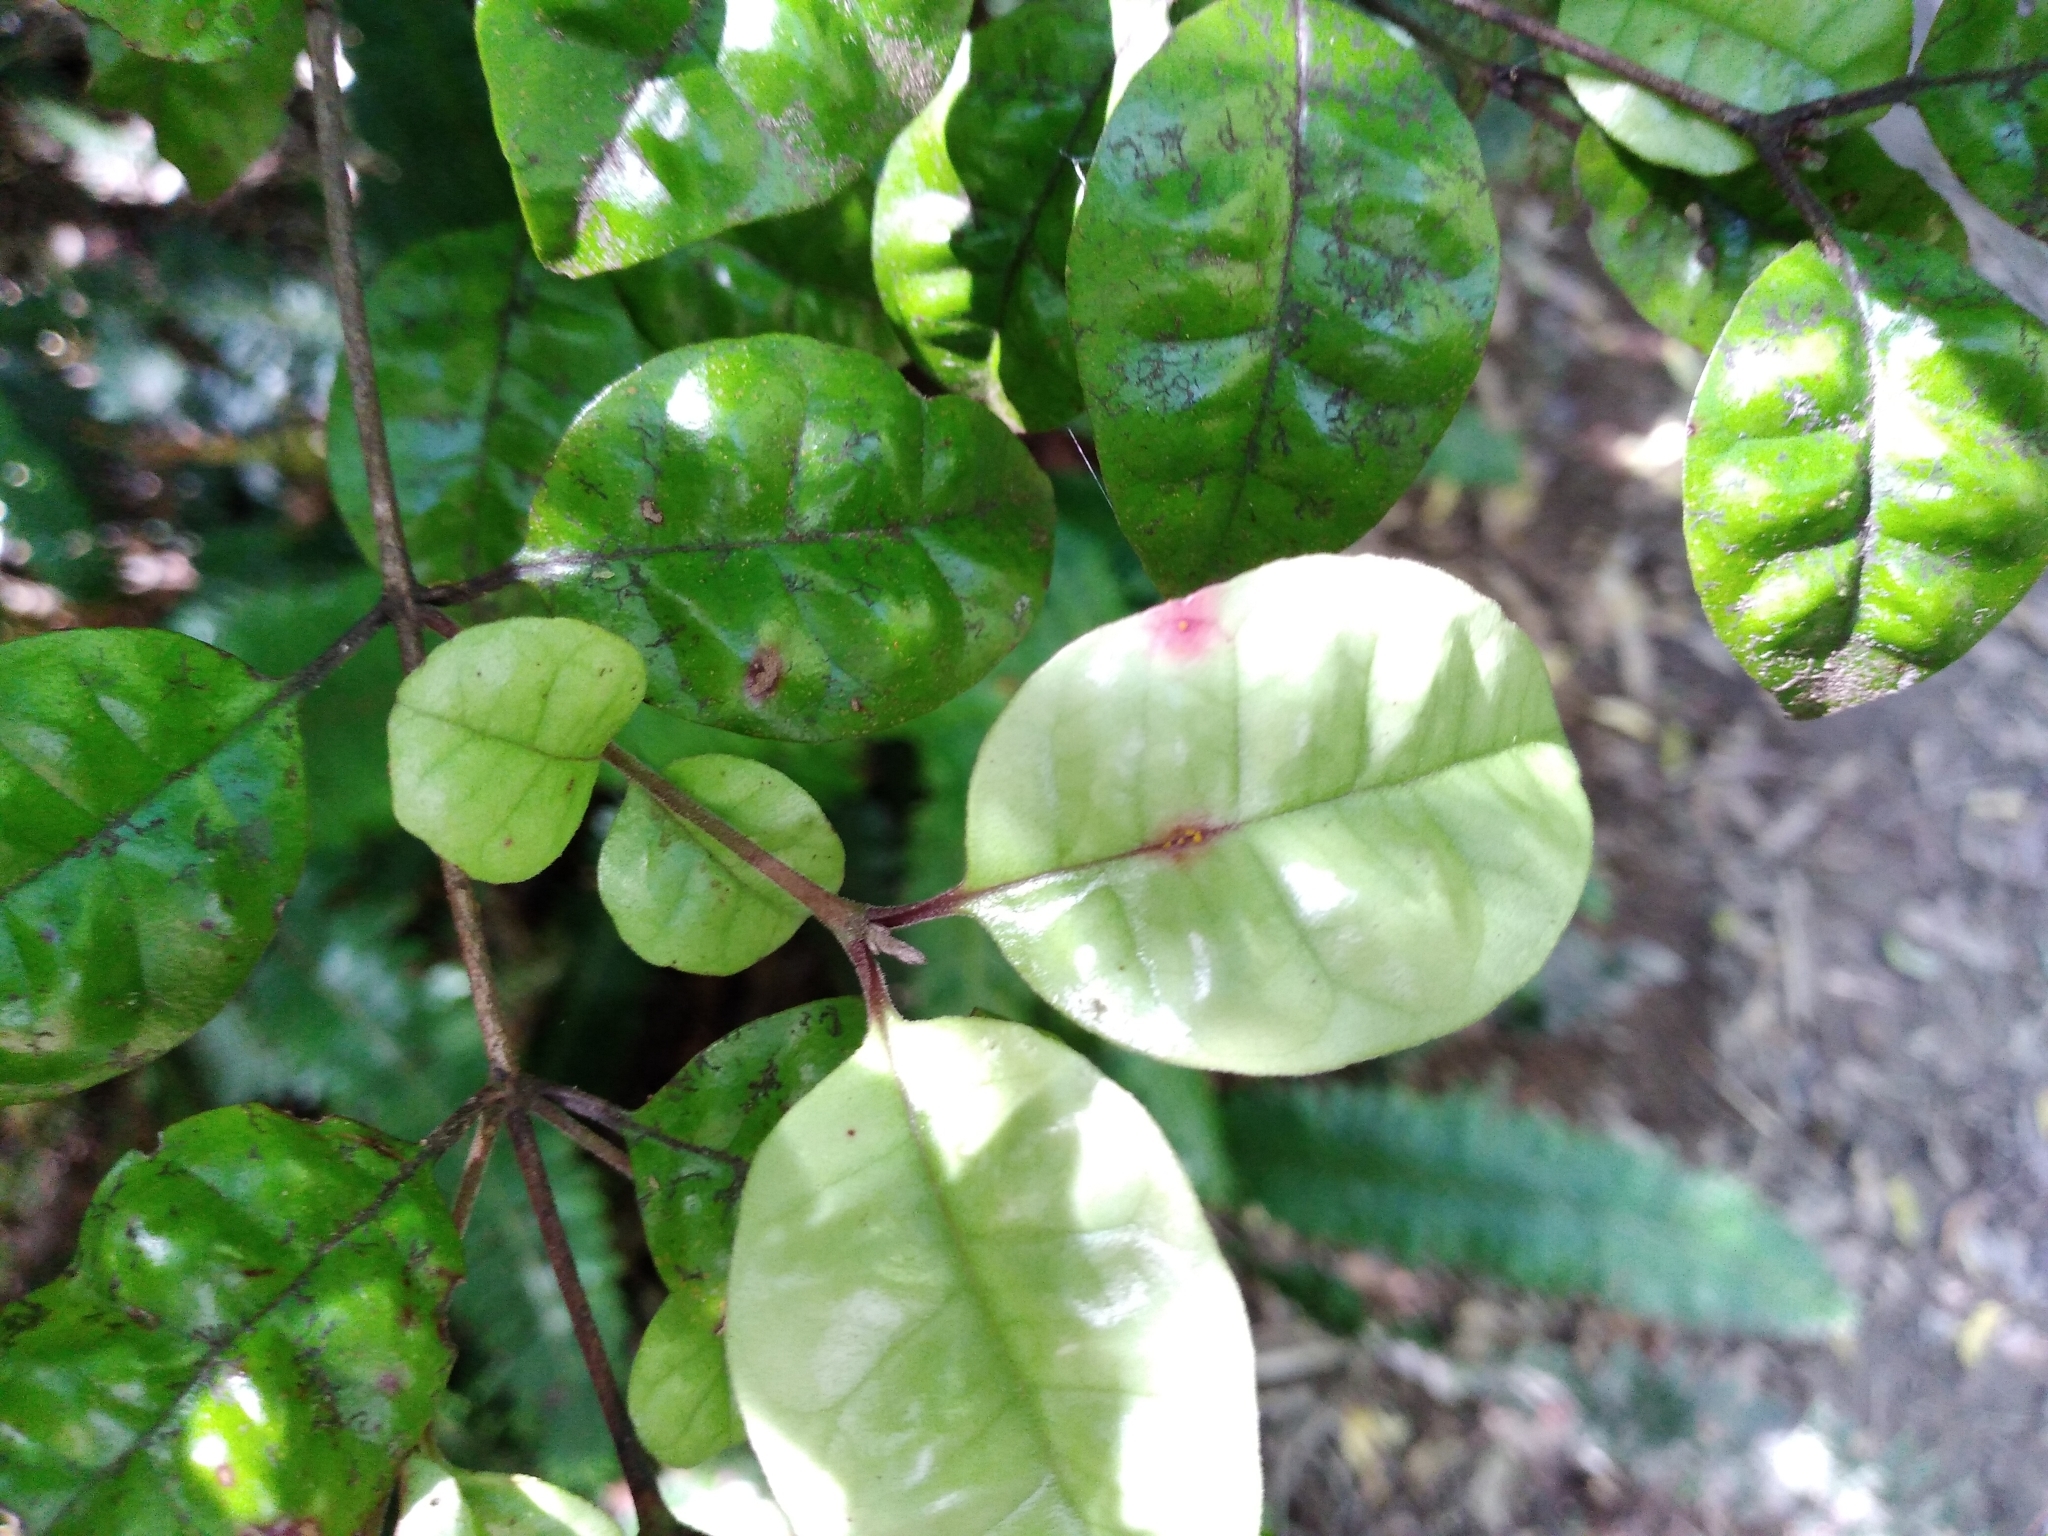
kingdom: Fungi
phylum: Basidiomycota
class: Pucciniomycetes
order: Pucciniales
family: Sphaerophragmiaceae
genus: Austropuccinia
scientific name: Austropuccinia psidii
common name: Myrtle rust
